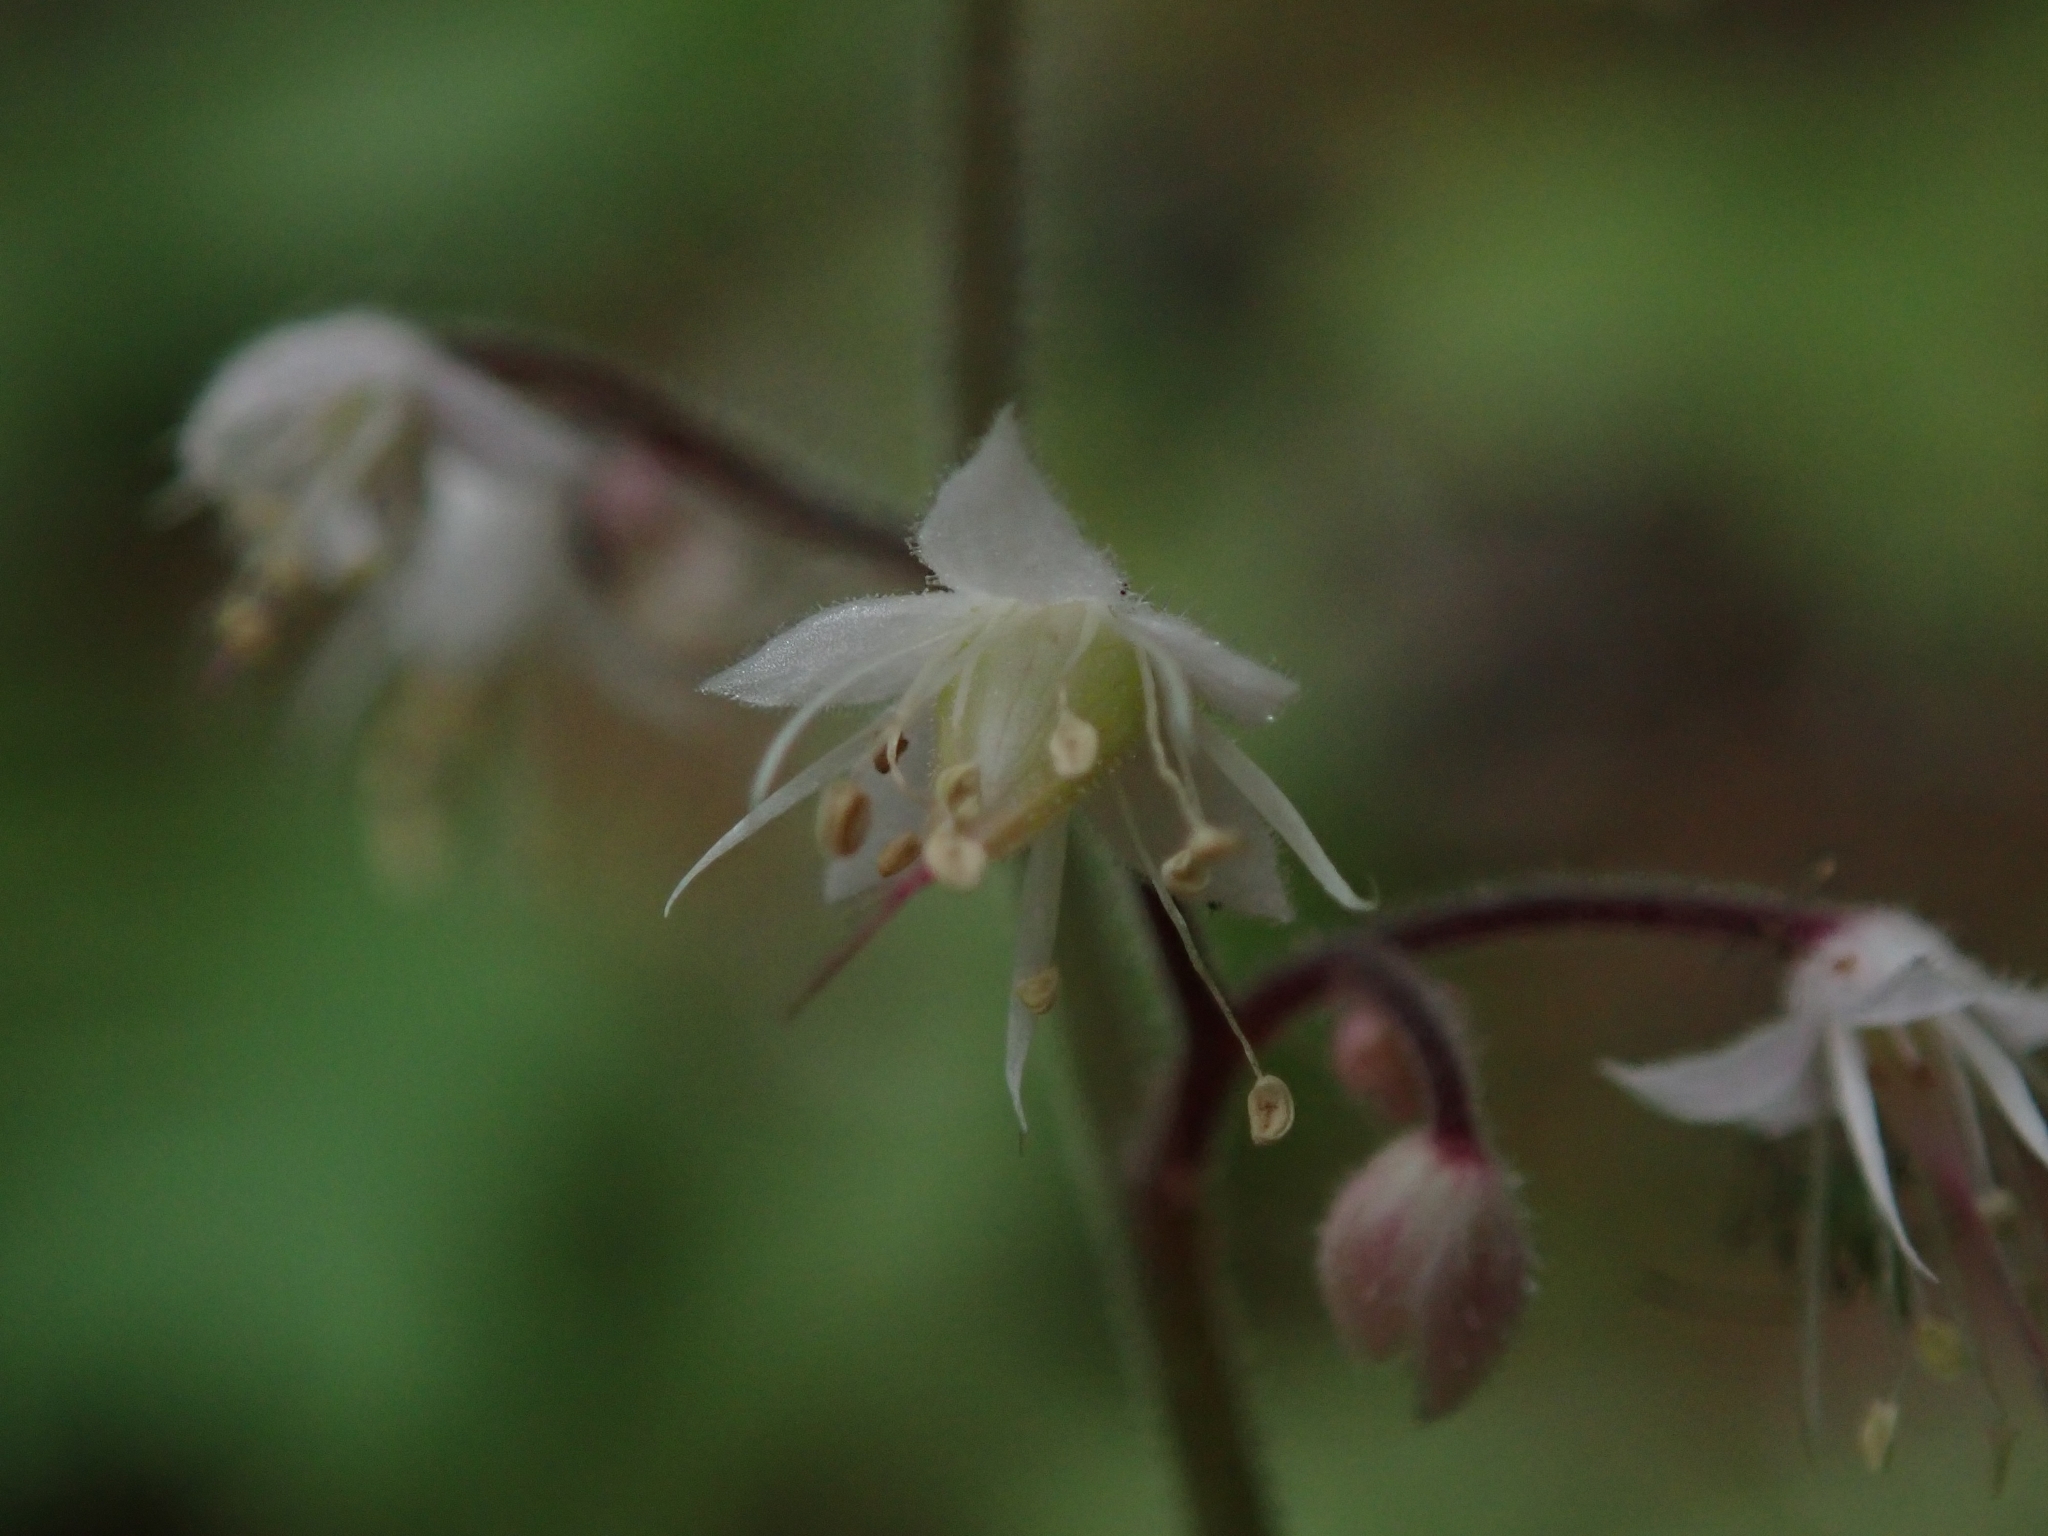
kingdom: Plantae
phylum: Tracheophyta
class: Magnoliopsida
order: Saxifragales
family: Saxifragaceae
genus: Tiarella
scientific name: Tiarella trifoliata
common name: Sugar-scoop
